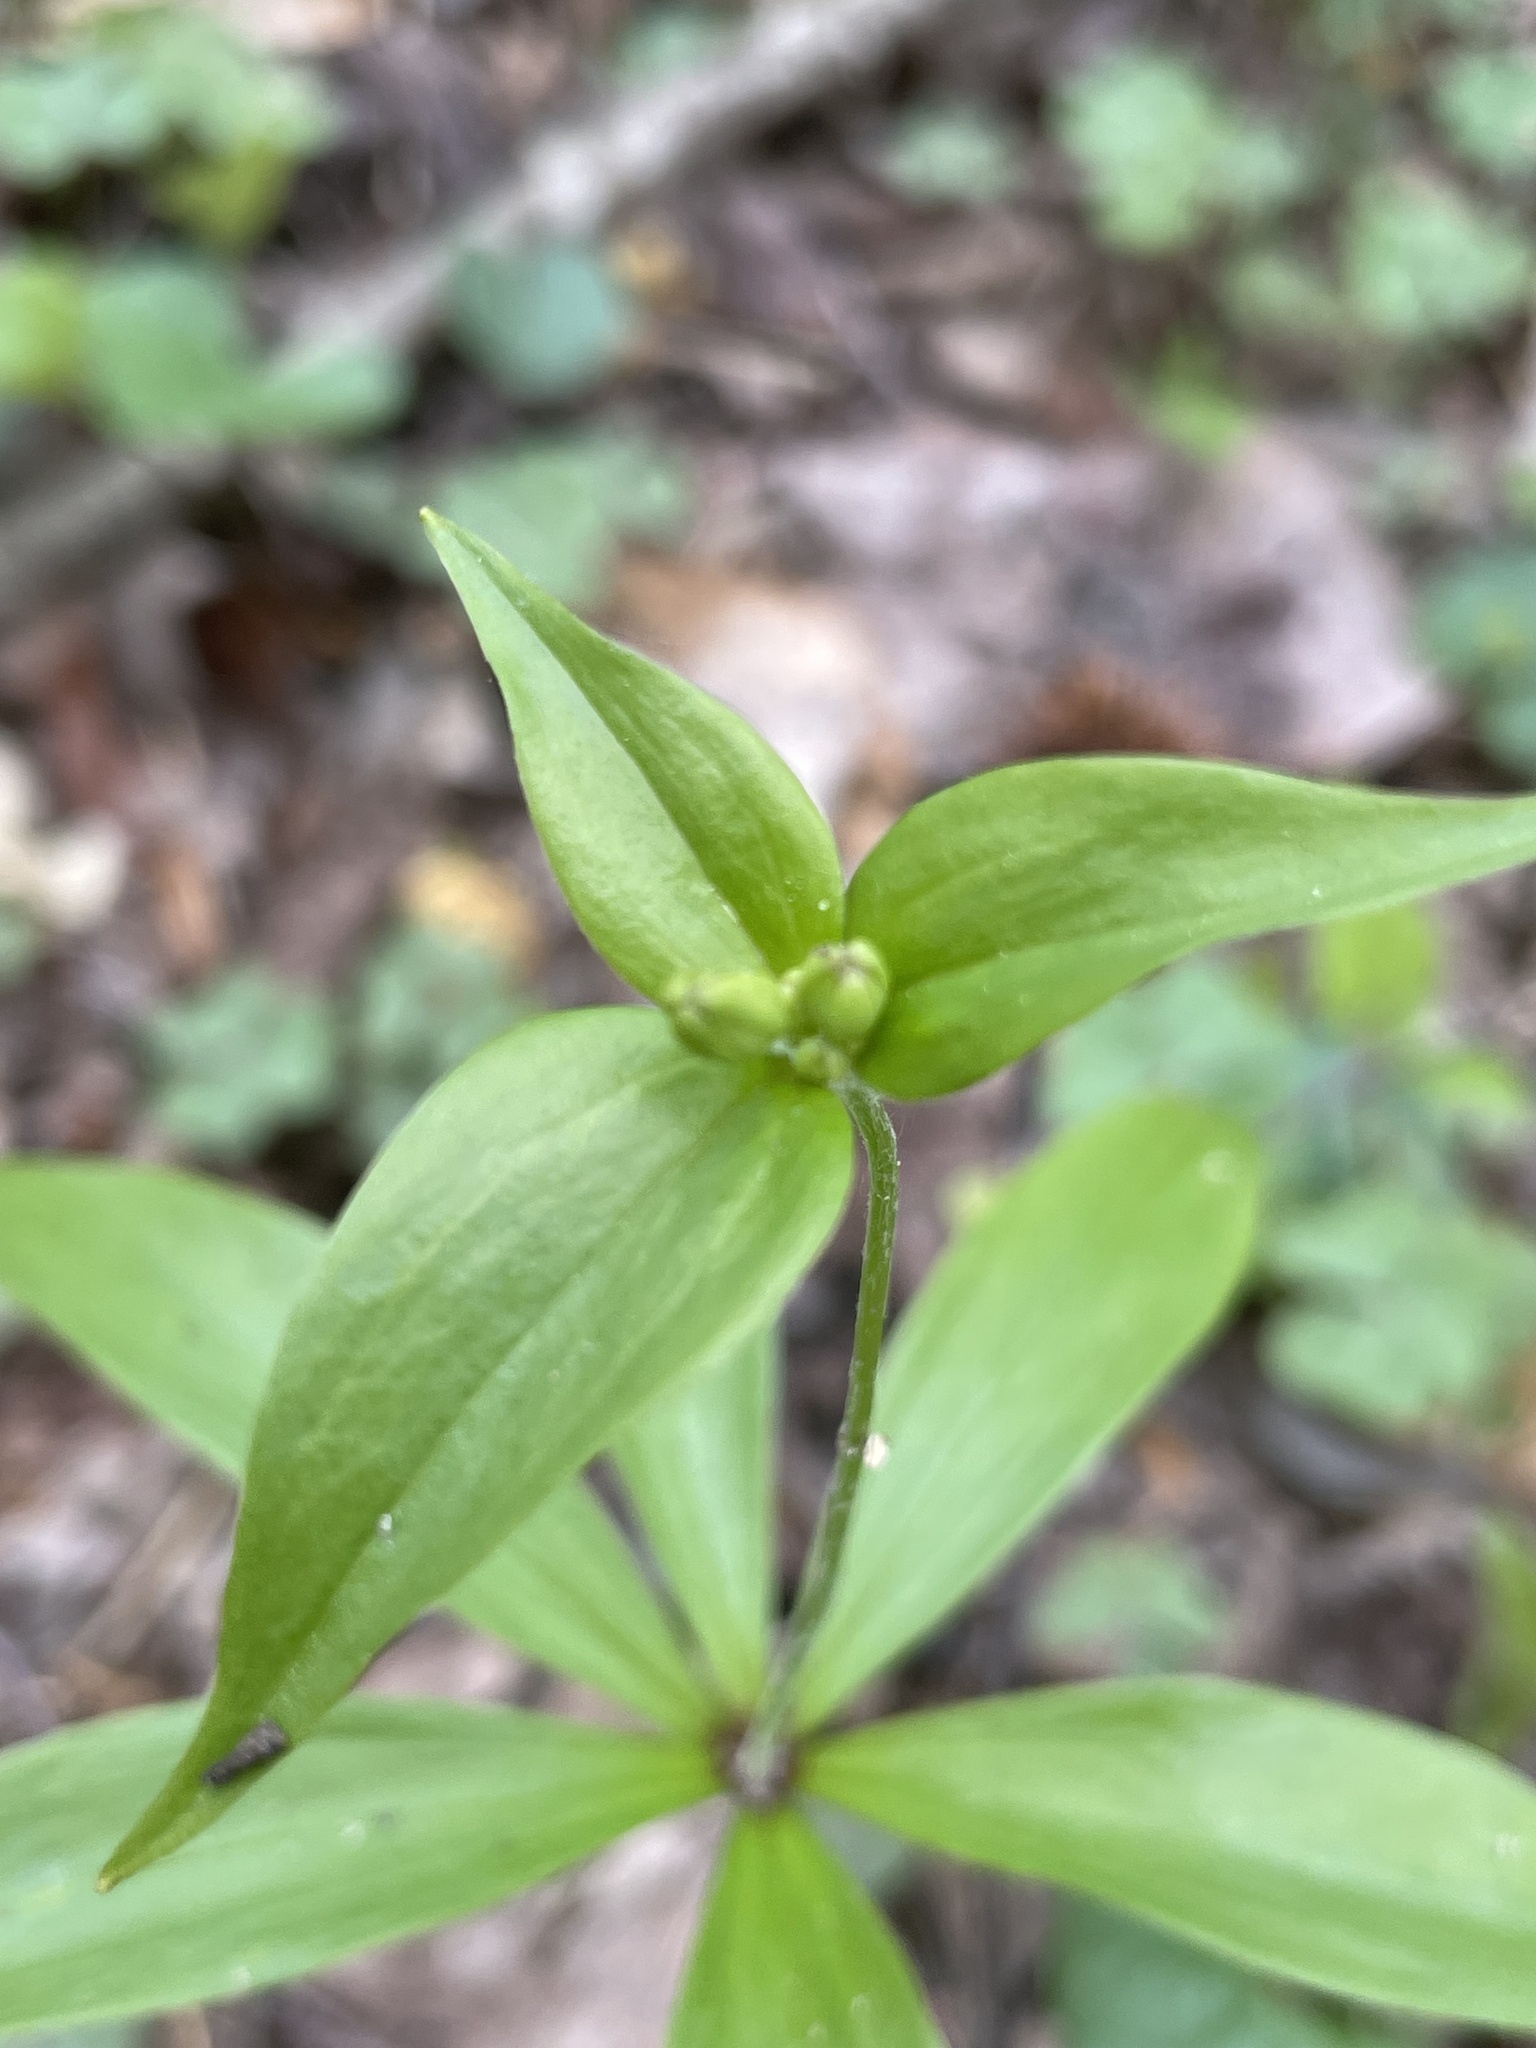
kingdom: Plantae
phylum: Tracheophyta
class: Liliopsida
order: Liliales
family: Liliaceae
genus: Medeola
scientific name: Medeola virginiana
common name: Indian cucumber-root
